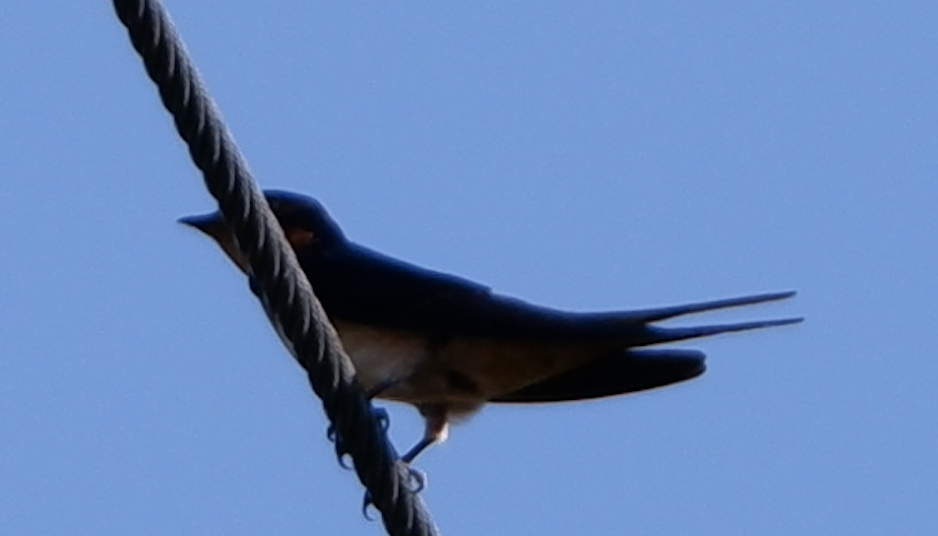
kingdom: Animalia
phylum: Chordata
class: Aves
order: Passeriformes
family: Hirundinidae
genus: Hirundo
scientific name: Hirundo rustica
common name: Barn swallow
